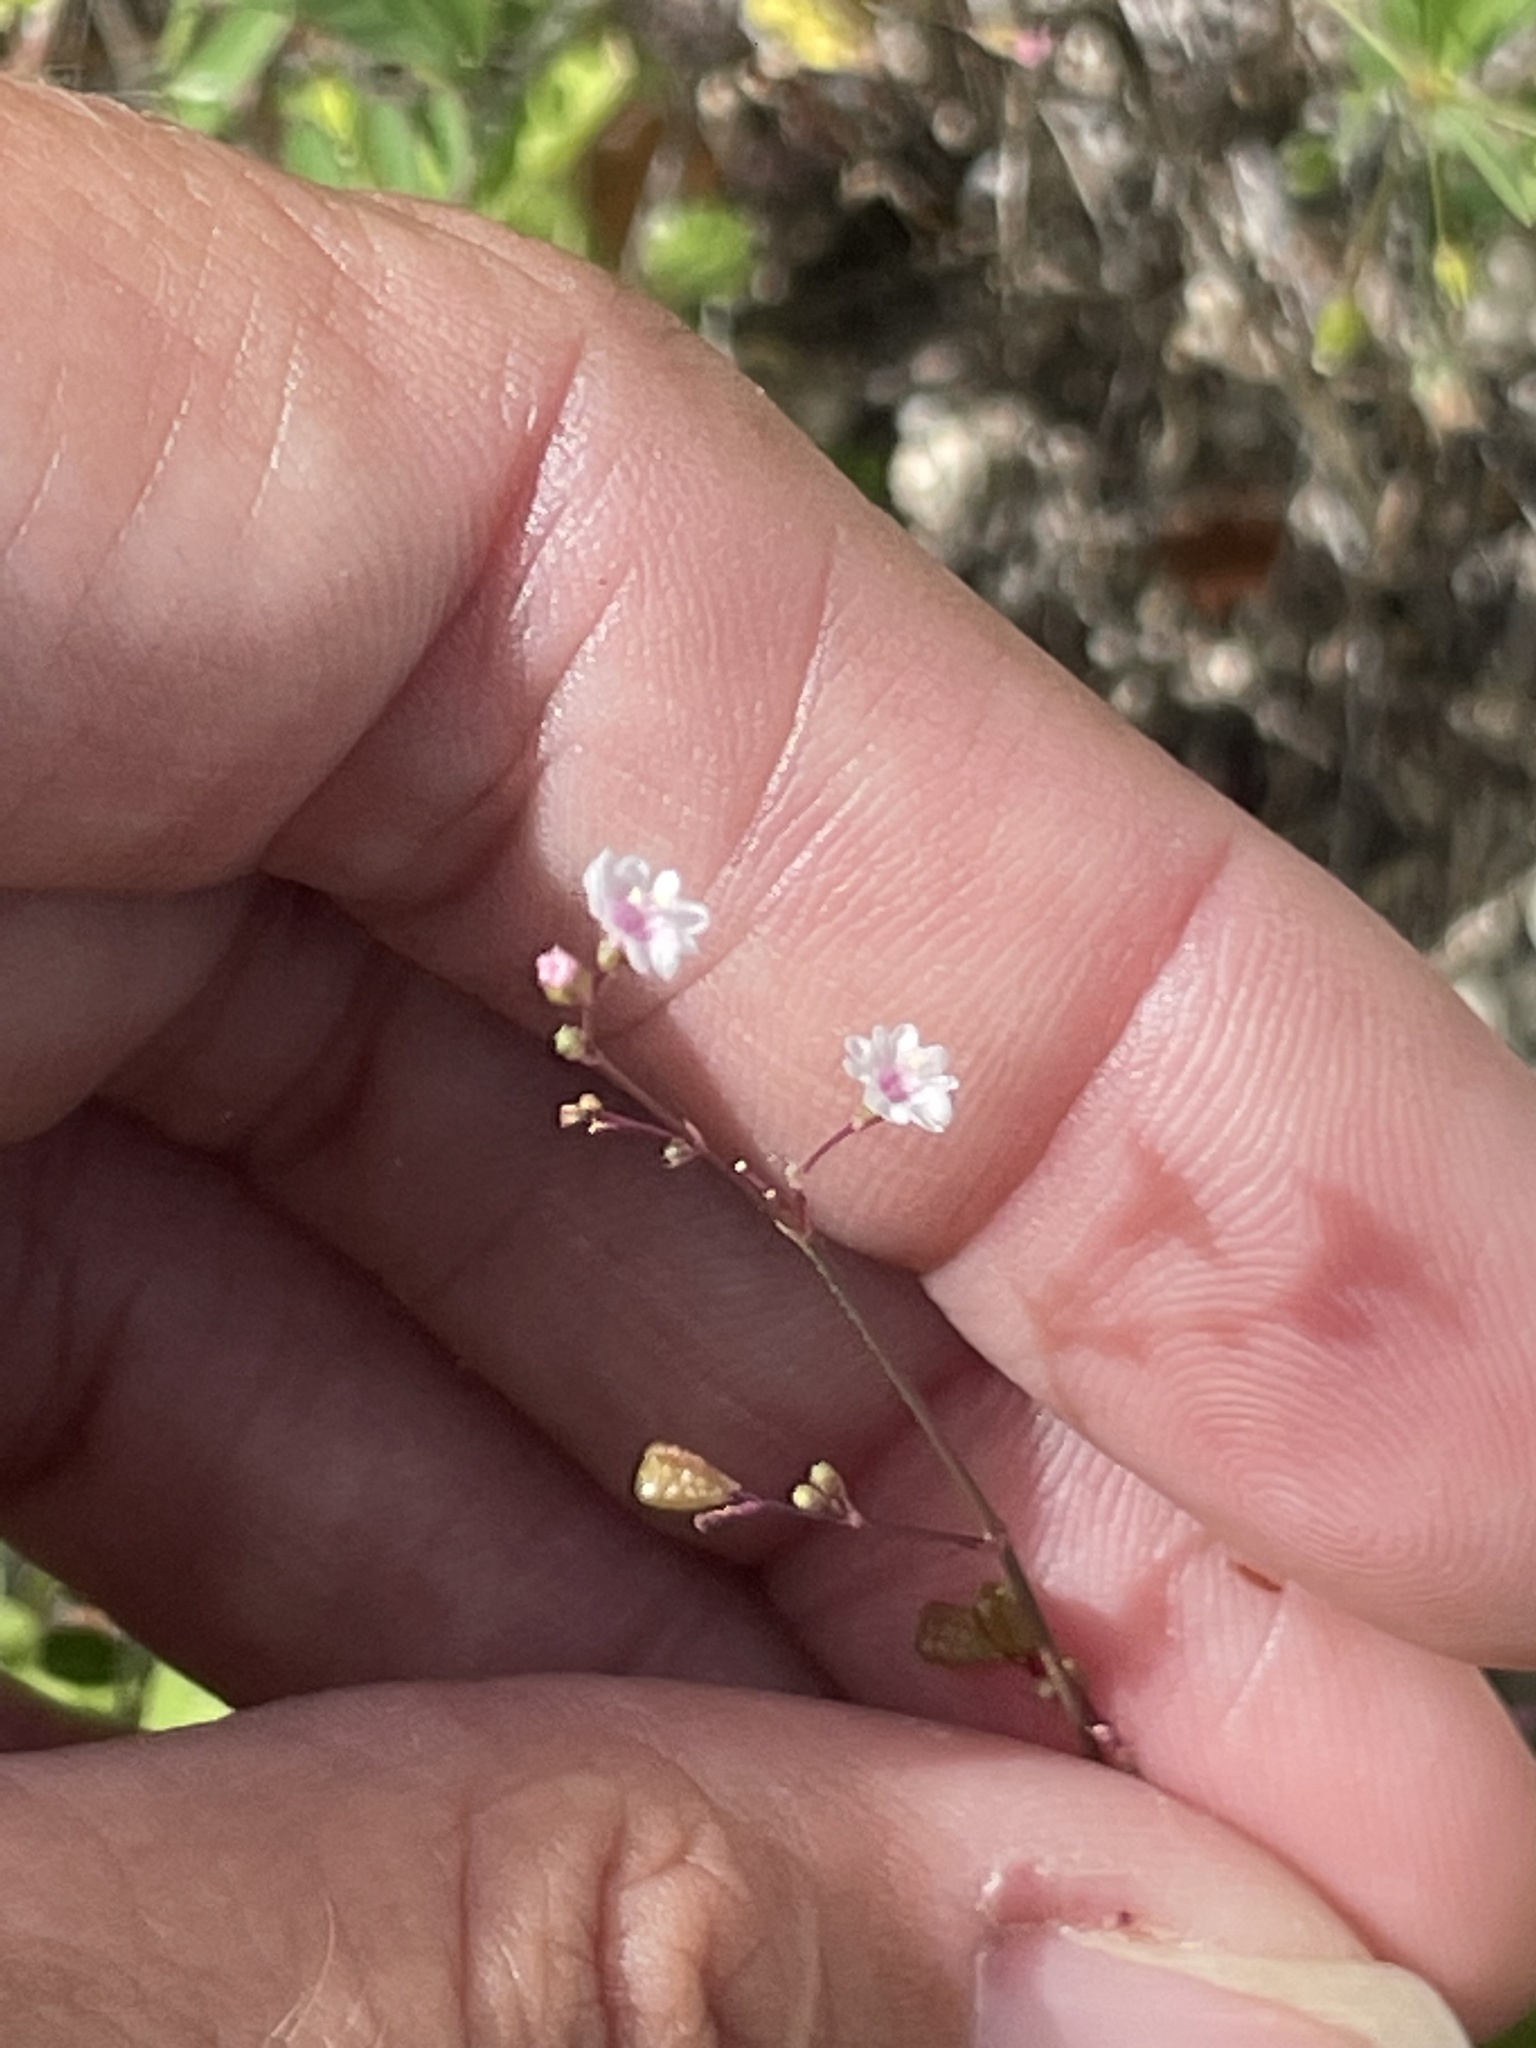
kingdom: Plantae
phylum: Tracheophyta
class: Magnoliopsida
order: Caryophyllales
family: Nyctaginaceae
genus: Boerhavia
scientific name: Boerhavia maculata
